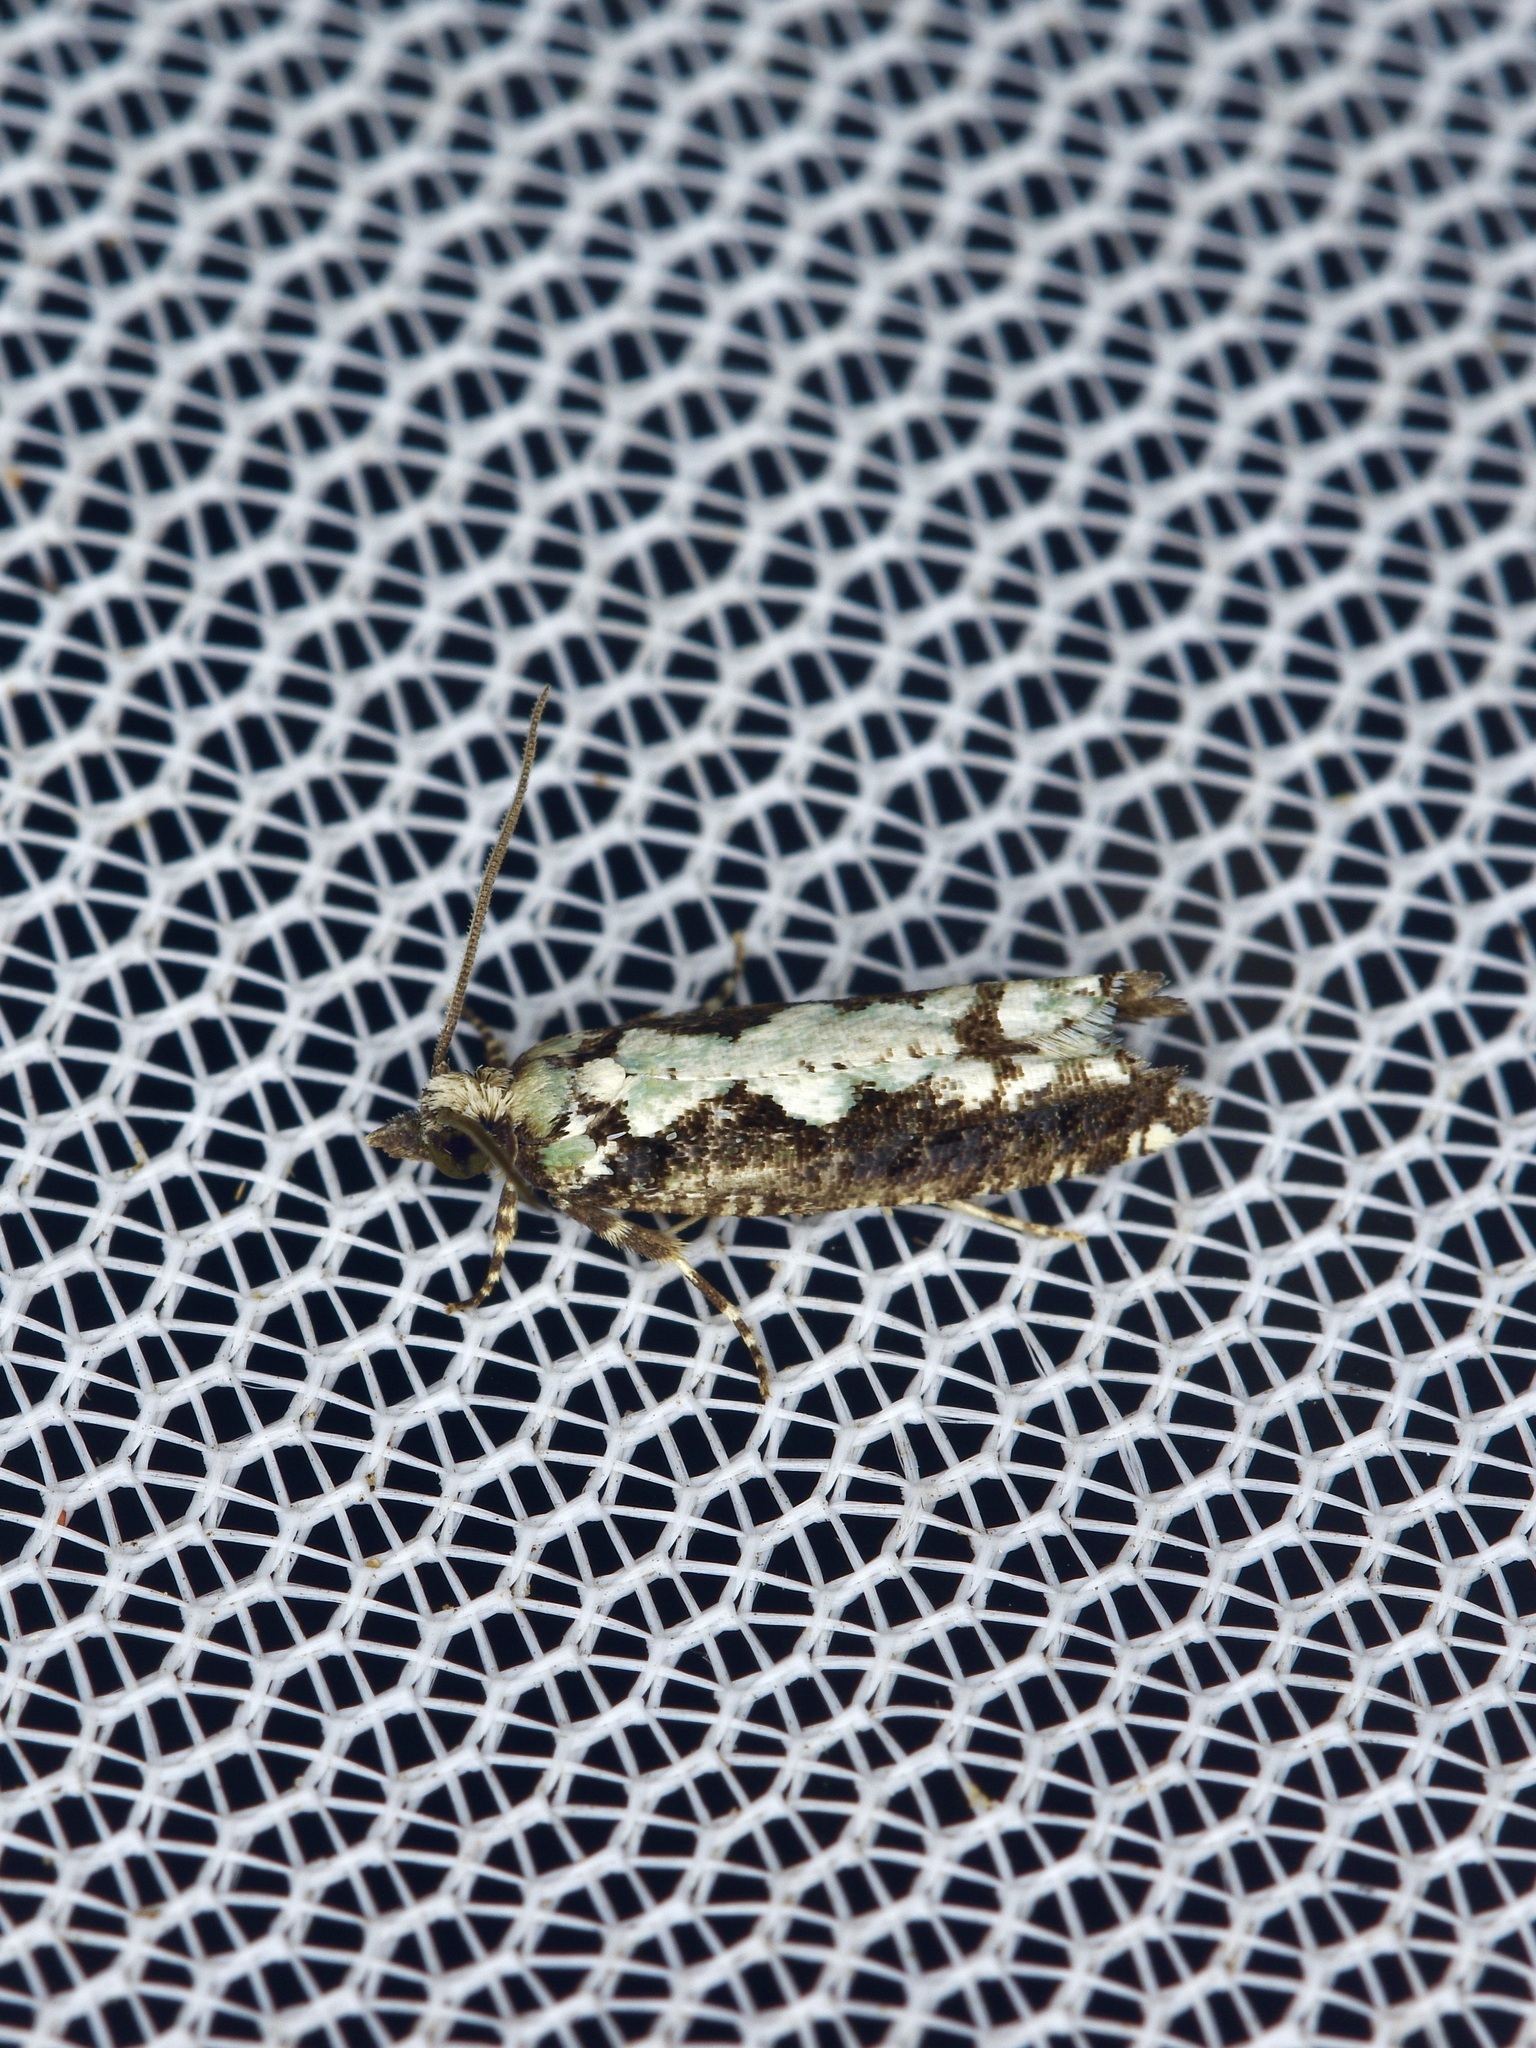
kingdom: Animalia
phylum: Arthropoda
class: Insecta
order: Lepidoptera
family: Tortricidae
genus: Chimoptesis
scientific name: Chimoptesis pennsylvaniana
